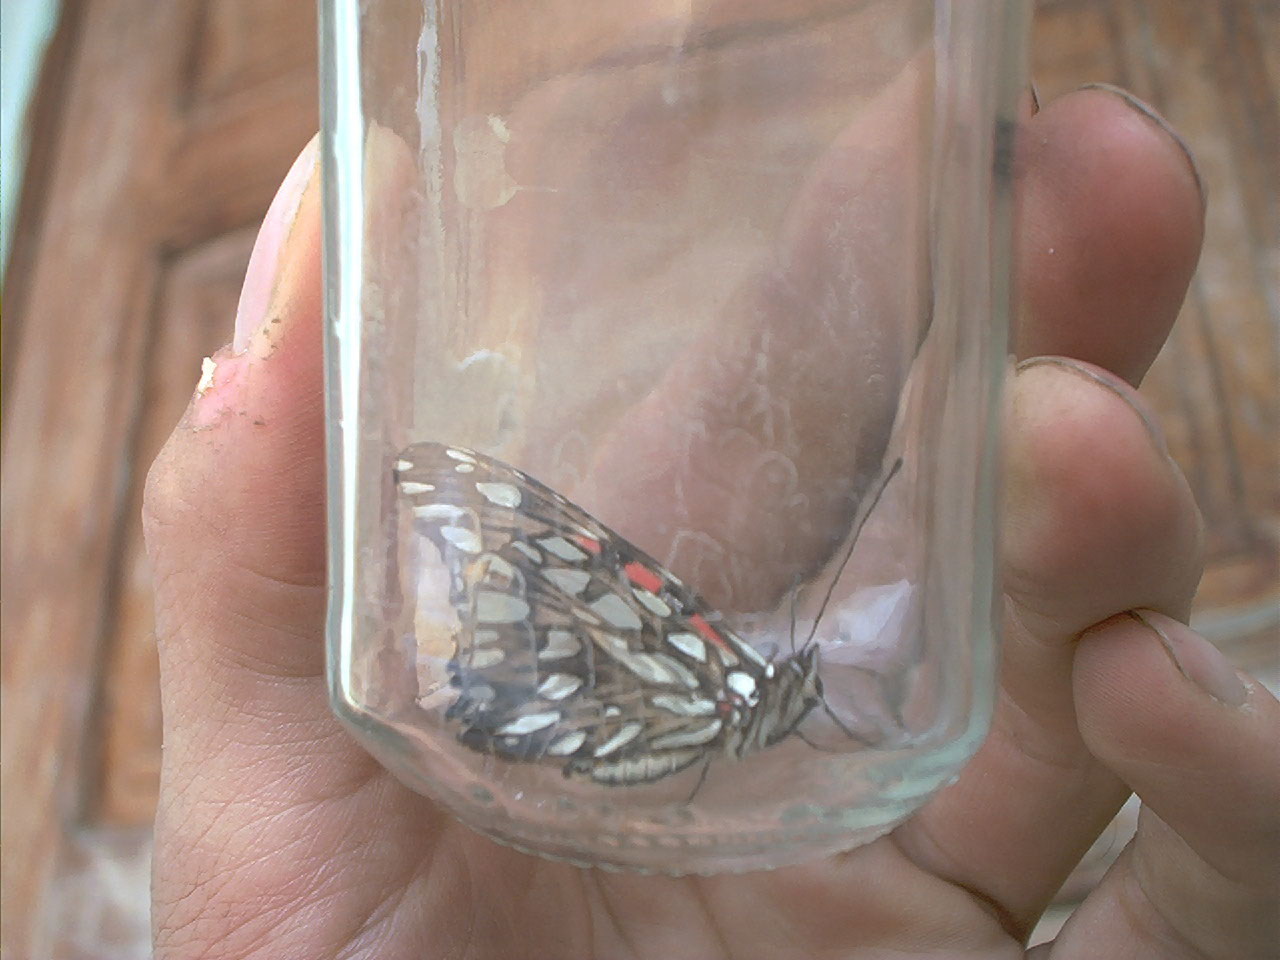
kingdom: Animalia
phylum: Arthropoda
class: Insecta
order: Lepidoptera
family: Nymphalidae
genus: Dione
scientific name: Dione moneta
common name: Mexican silverspot
